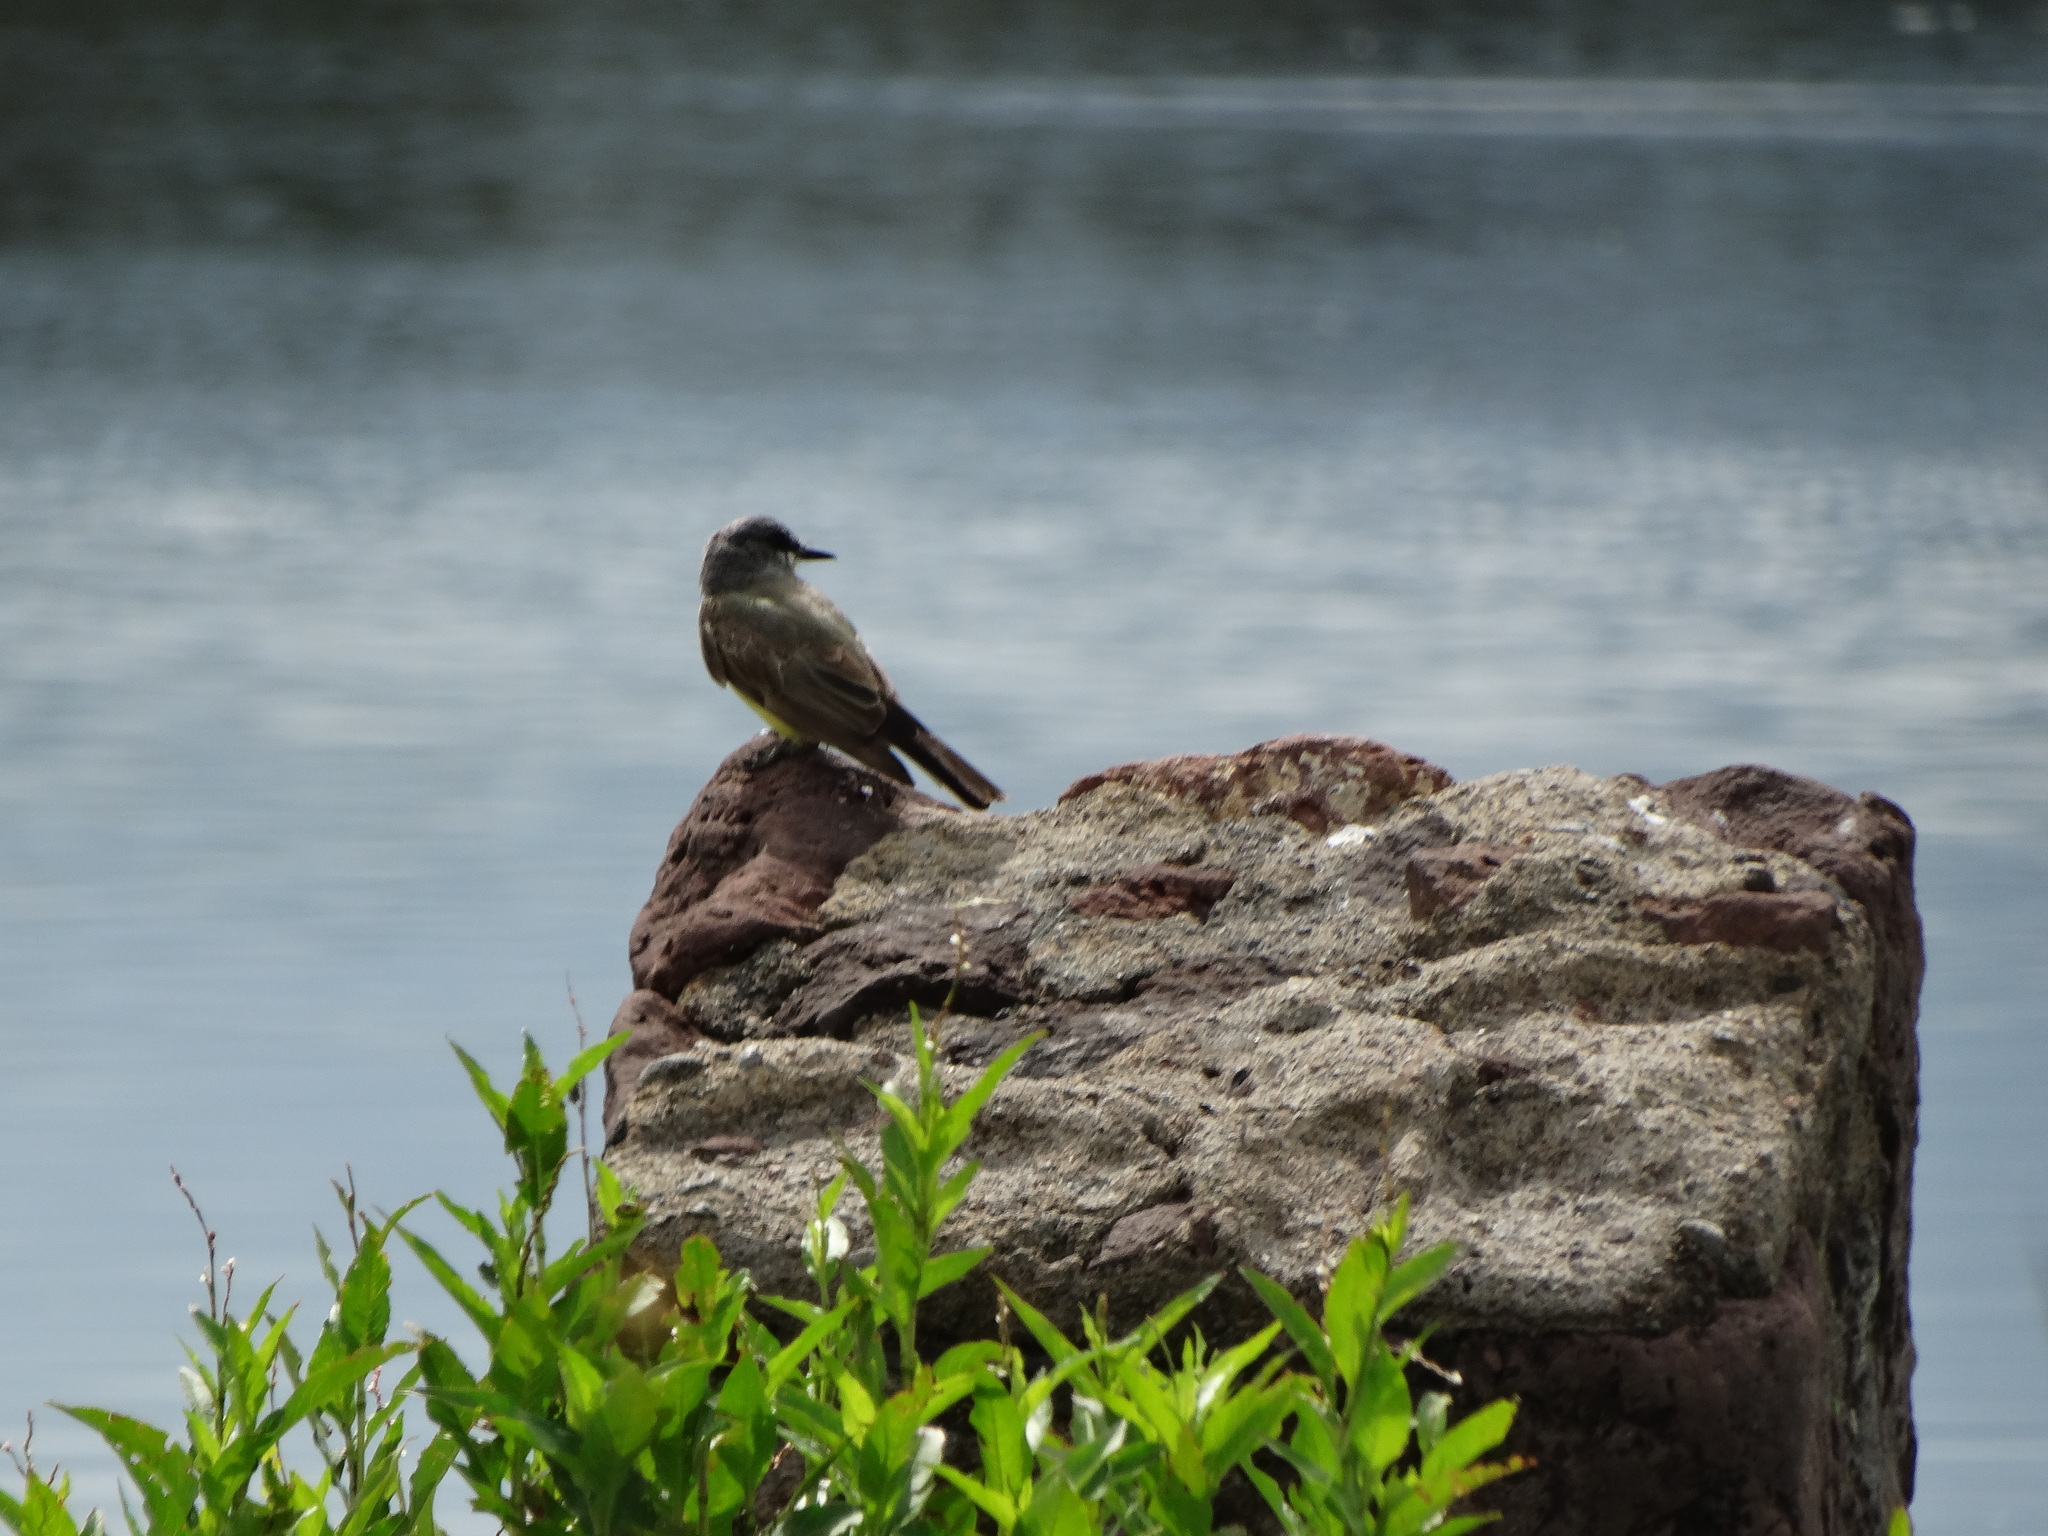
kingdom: Animalia
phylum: Chordata
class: Aves
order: Passeriformes
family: Tyrannidae
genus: Tyrannus
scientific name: Tyrannus vociferans
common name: Cassin's kingbird
